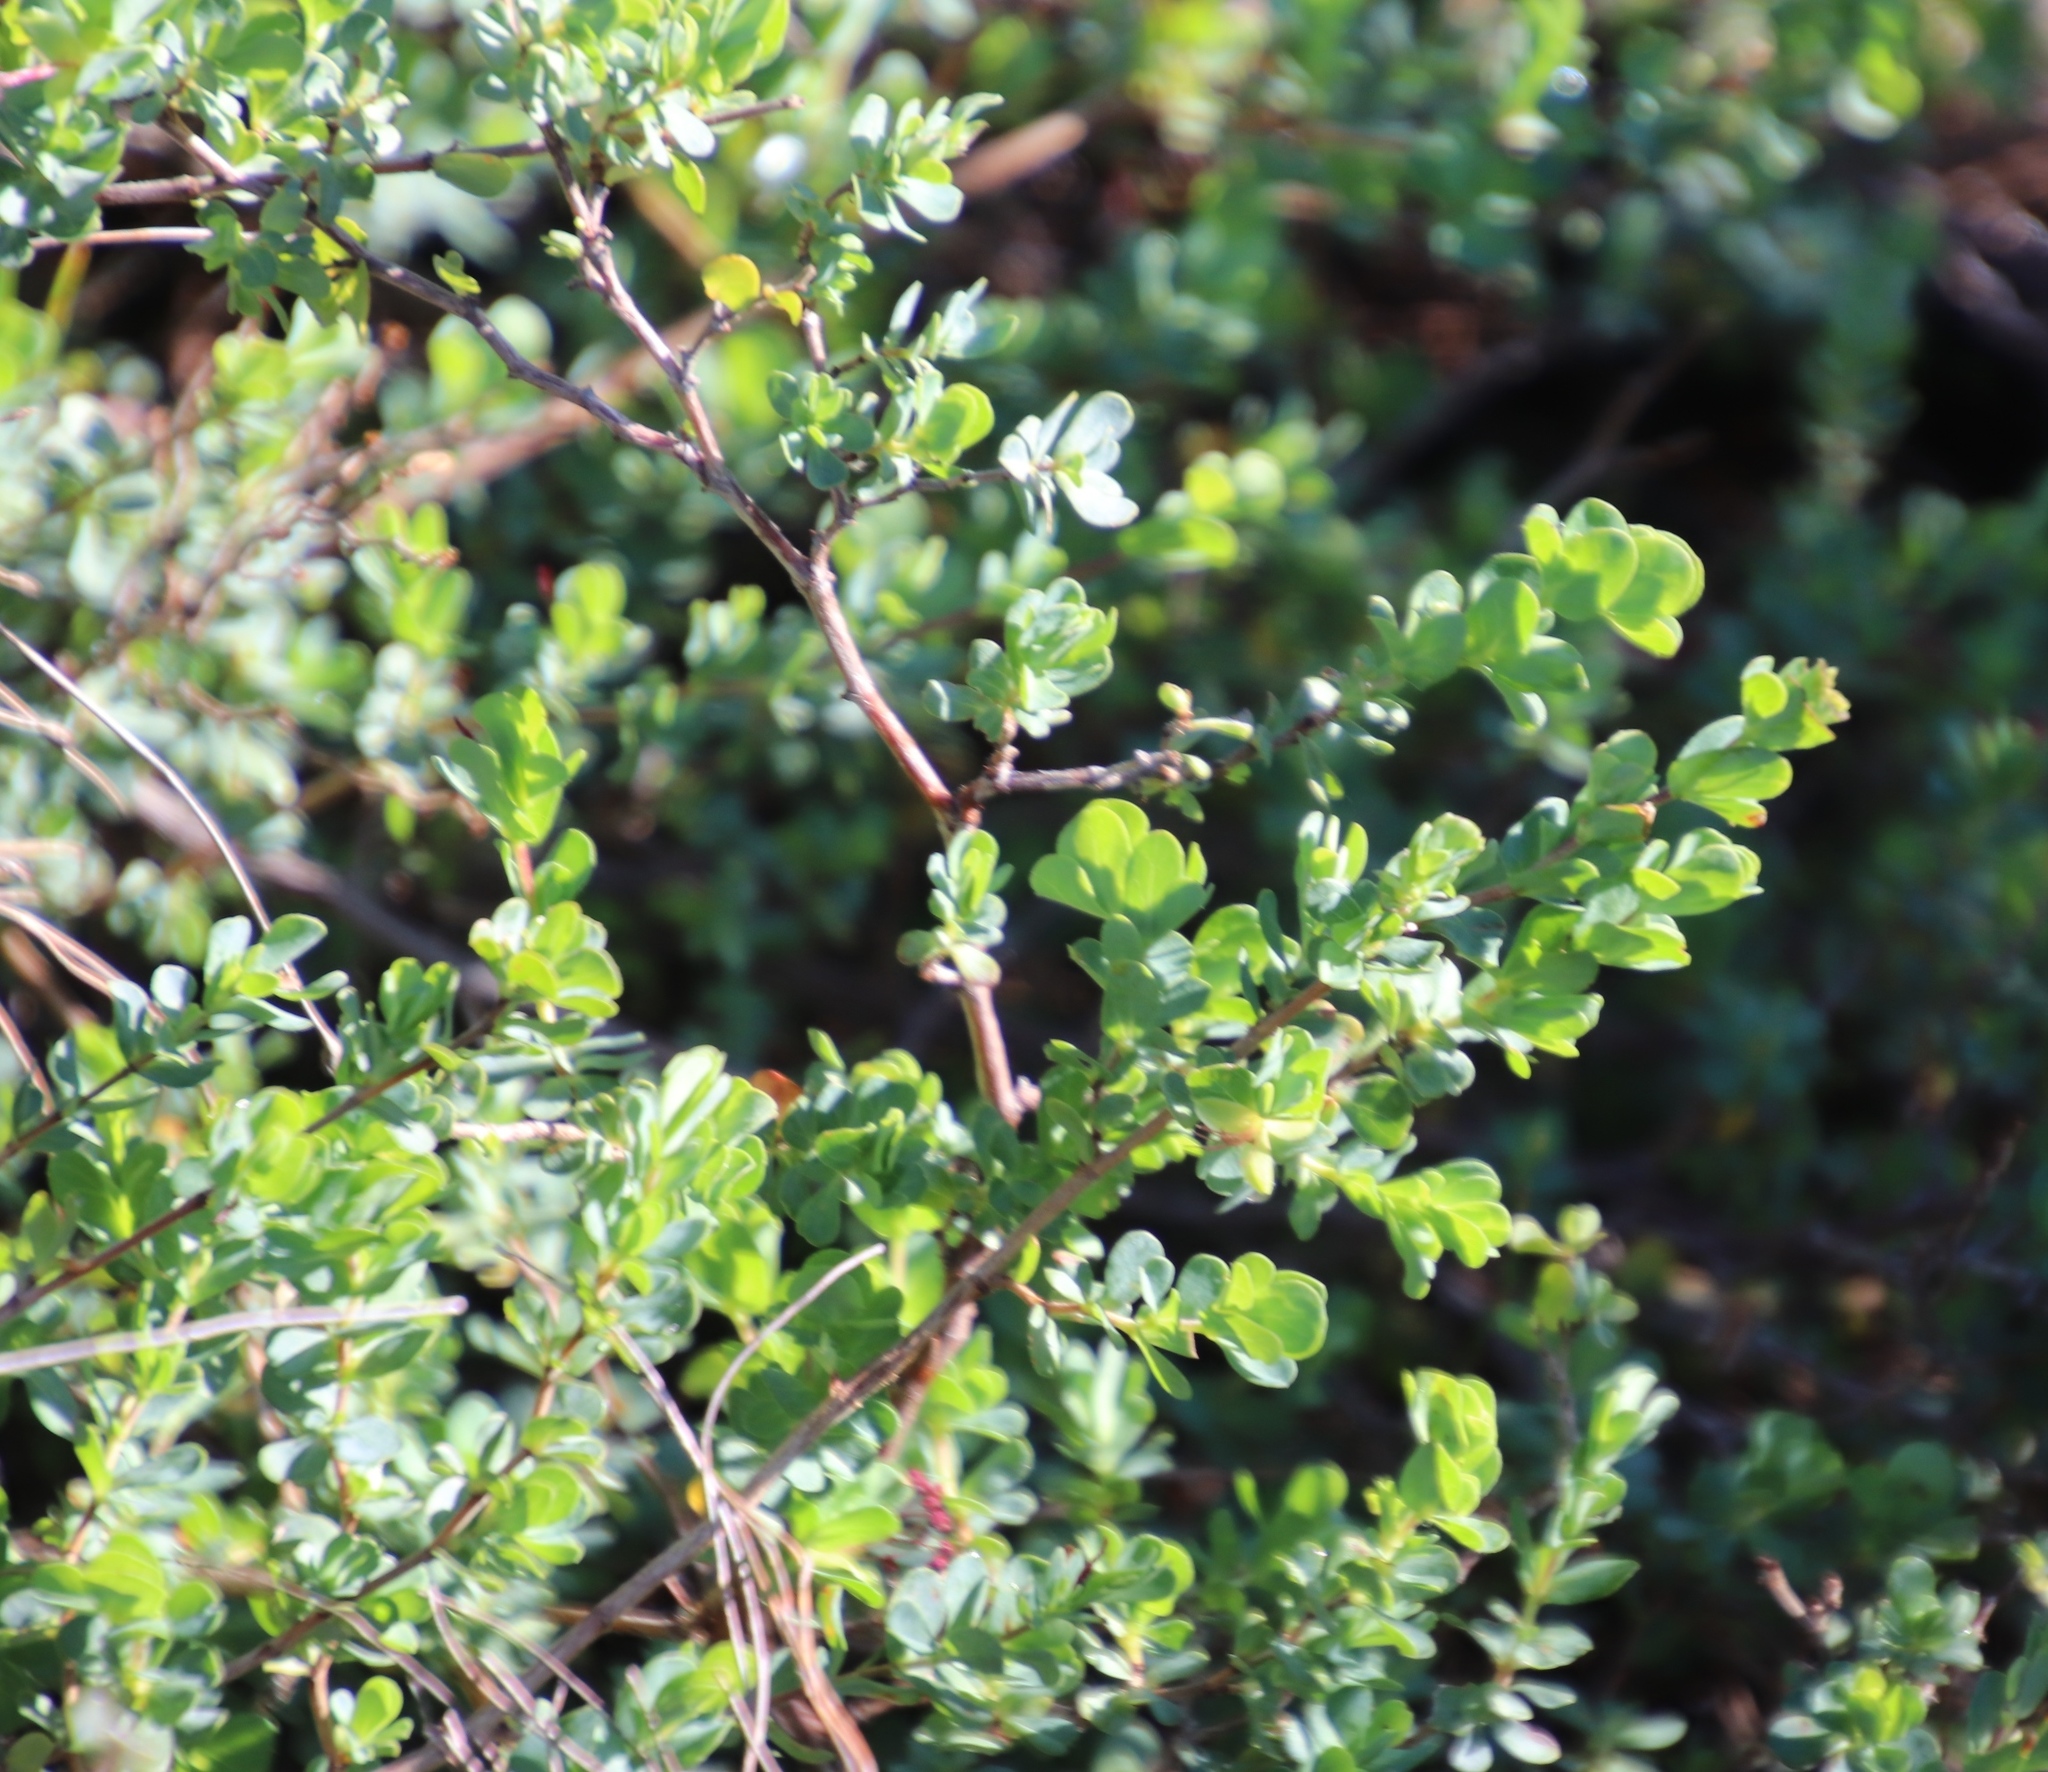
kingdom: Plantae
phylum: Tracheophyta
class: Magnoliopsida
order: Rosales
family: Rosaceae
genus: Cliffortia
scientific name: Cliffortia obcordata
